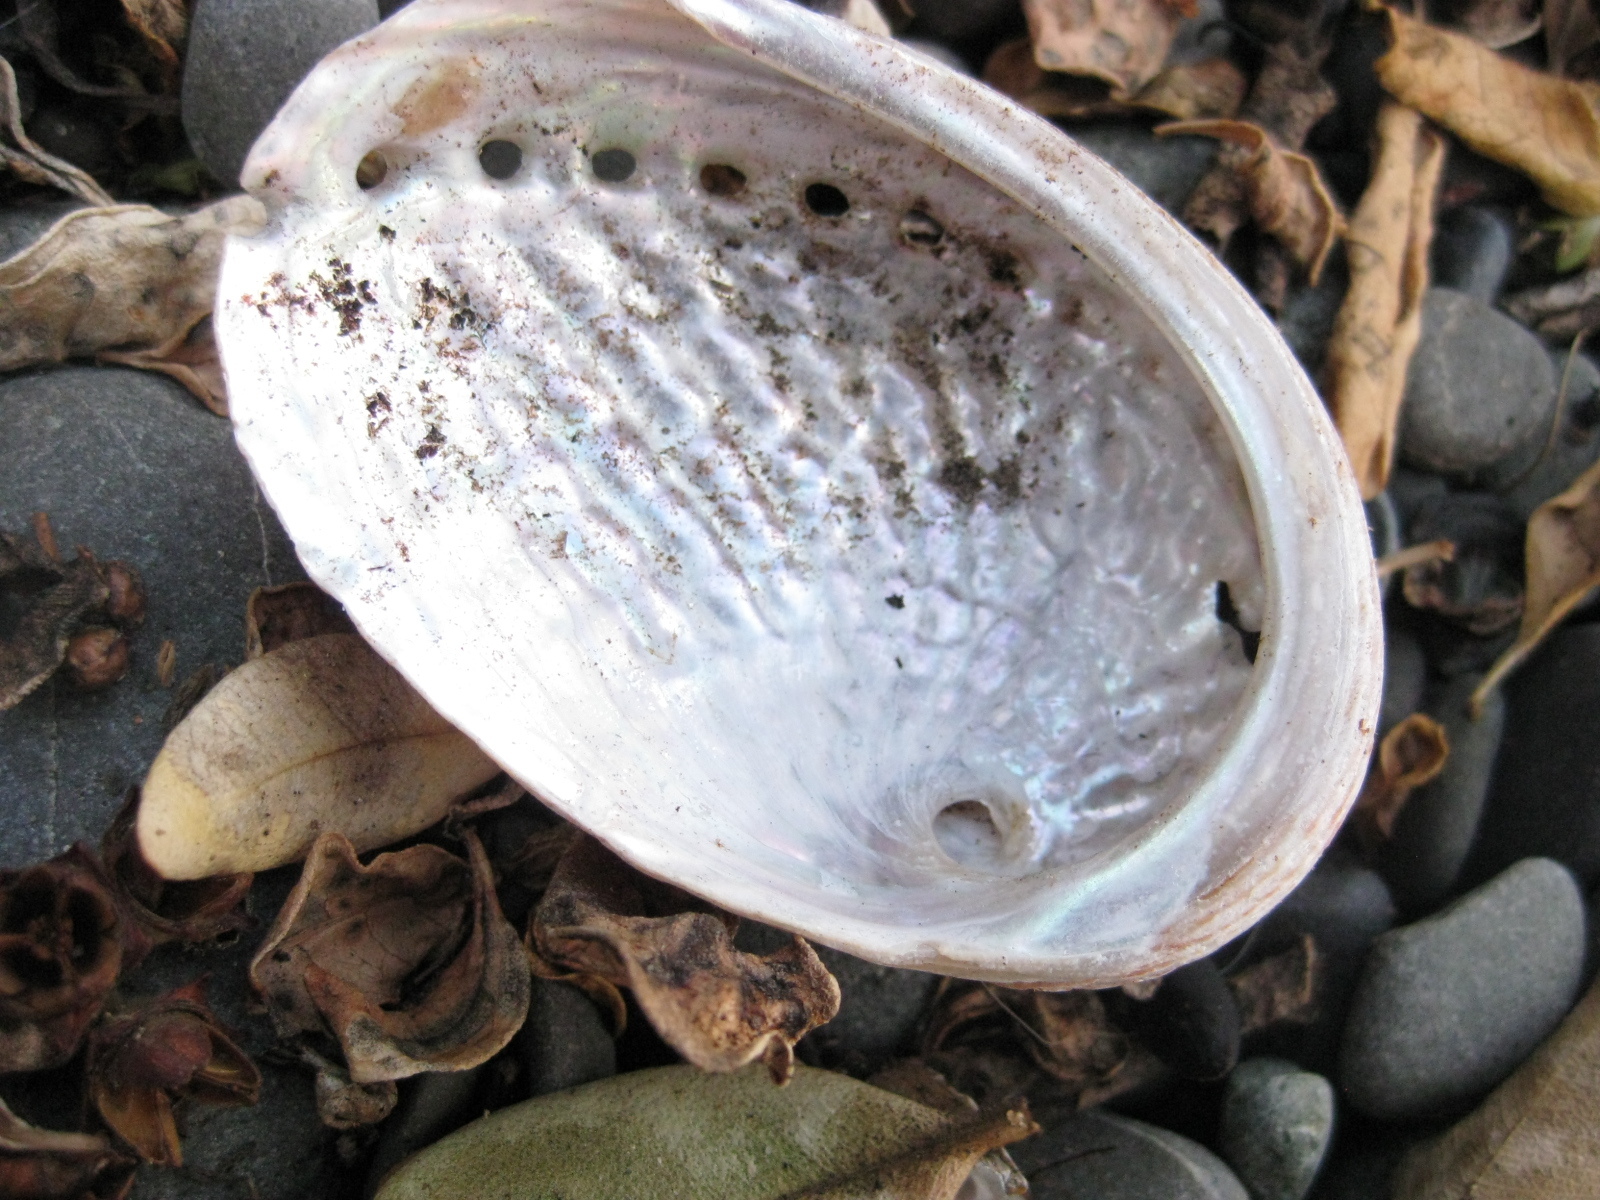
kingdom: Animalia
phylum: Mollusca
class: Gastropoda
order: Lepetellida
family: Haliotidae
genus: Haliotis
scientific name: Haliotis australis
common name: Silver abalone
